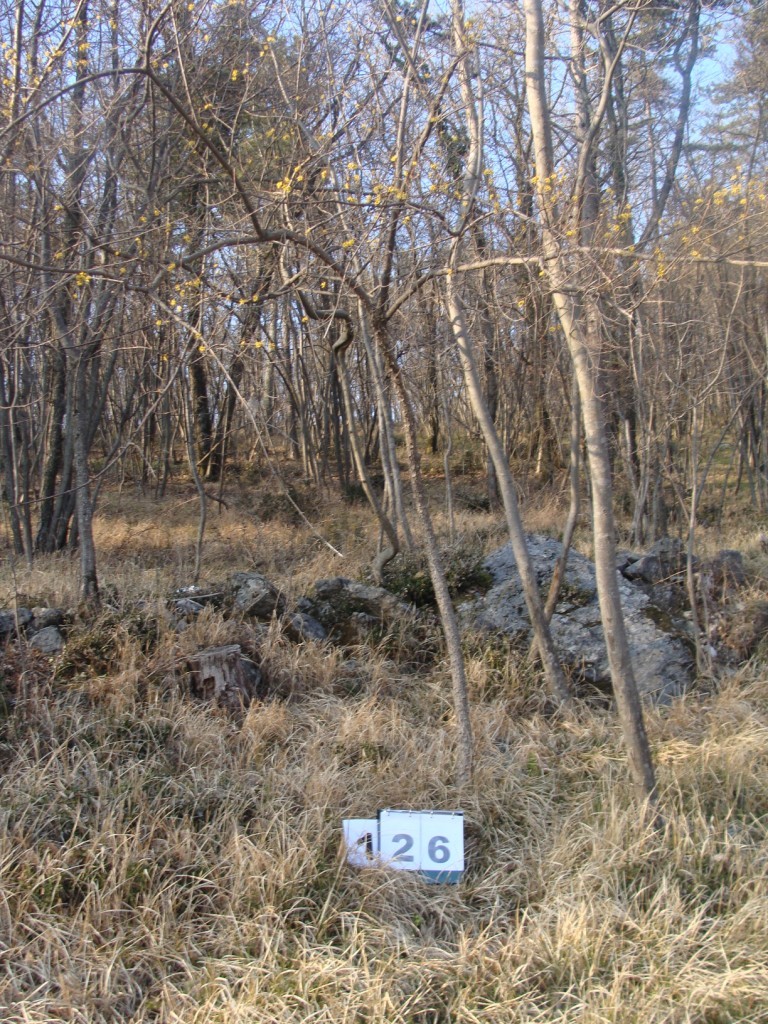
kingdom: Plantae
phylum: Tracheophyta
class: Magnoliopsida
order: Cornales
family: Cornaceae
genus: Cornus
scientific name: Cornus mas
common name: Cornelian-cherry
